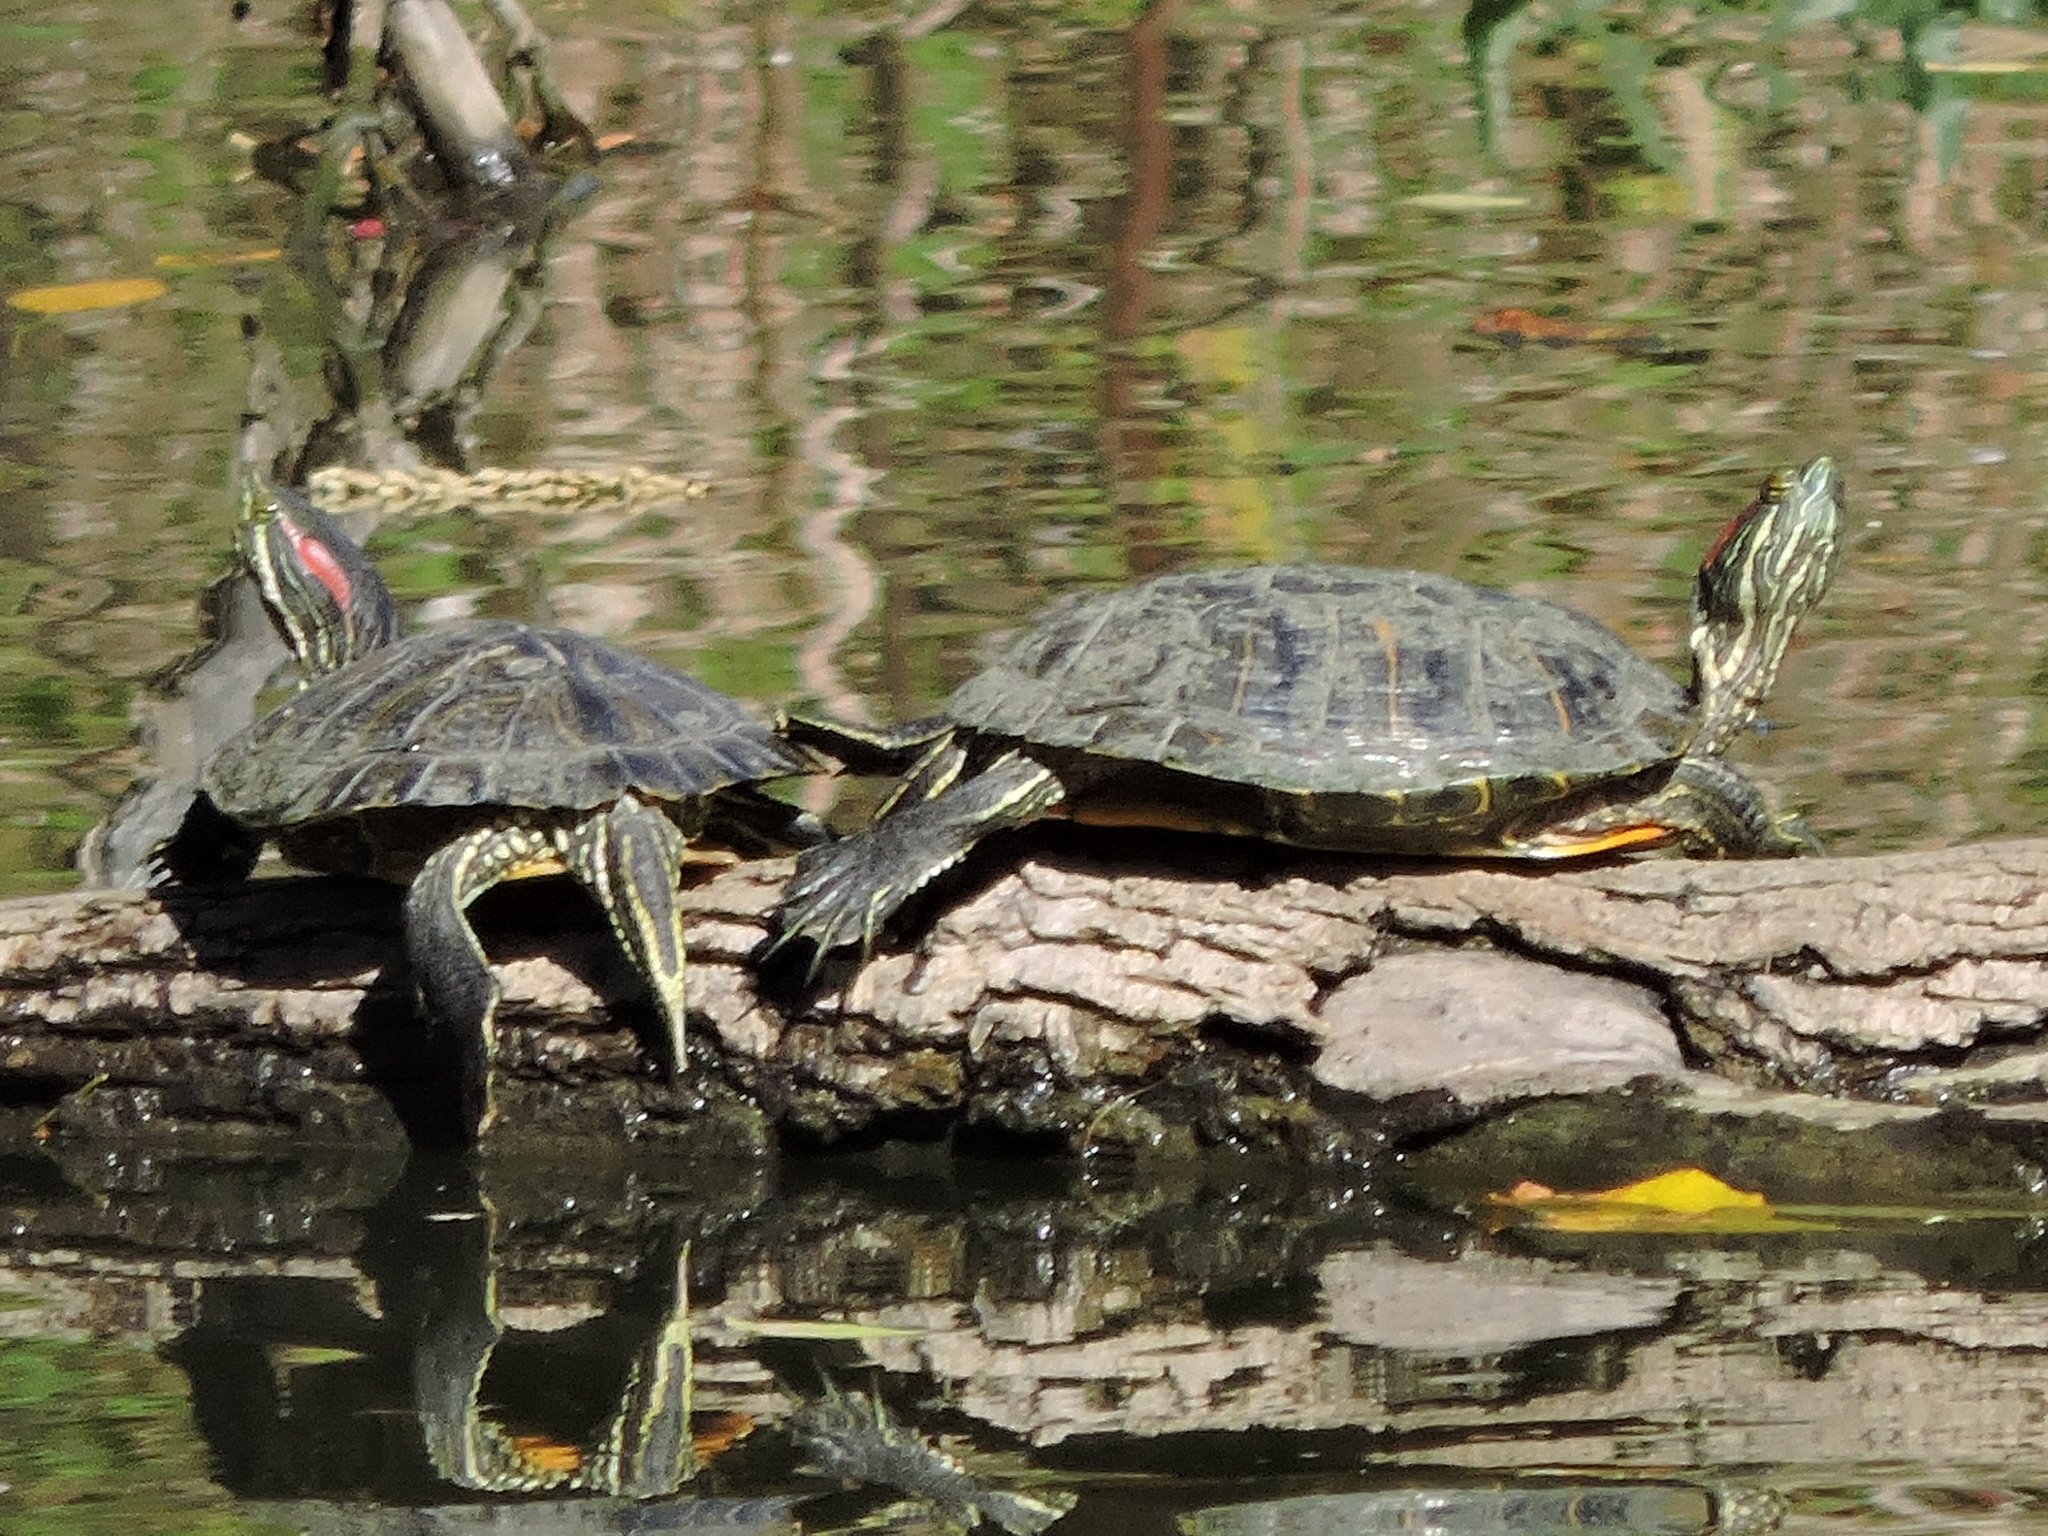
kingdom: Animalia
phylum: Chordata
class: Testudines
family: Emydidae
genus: Trachemys
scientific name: Trachemys scripta
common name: Slider
